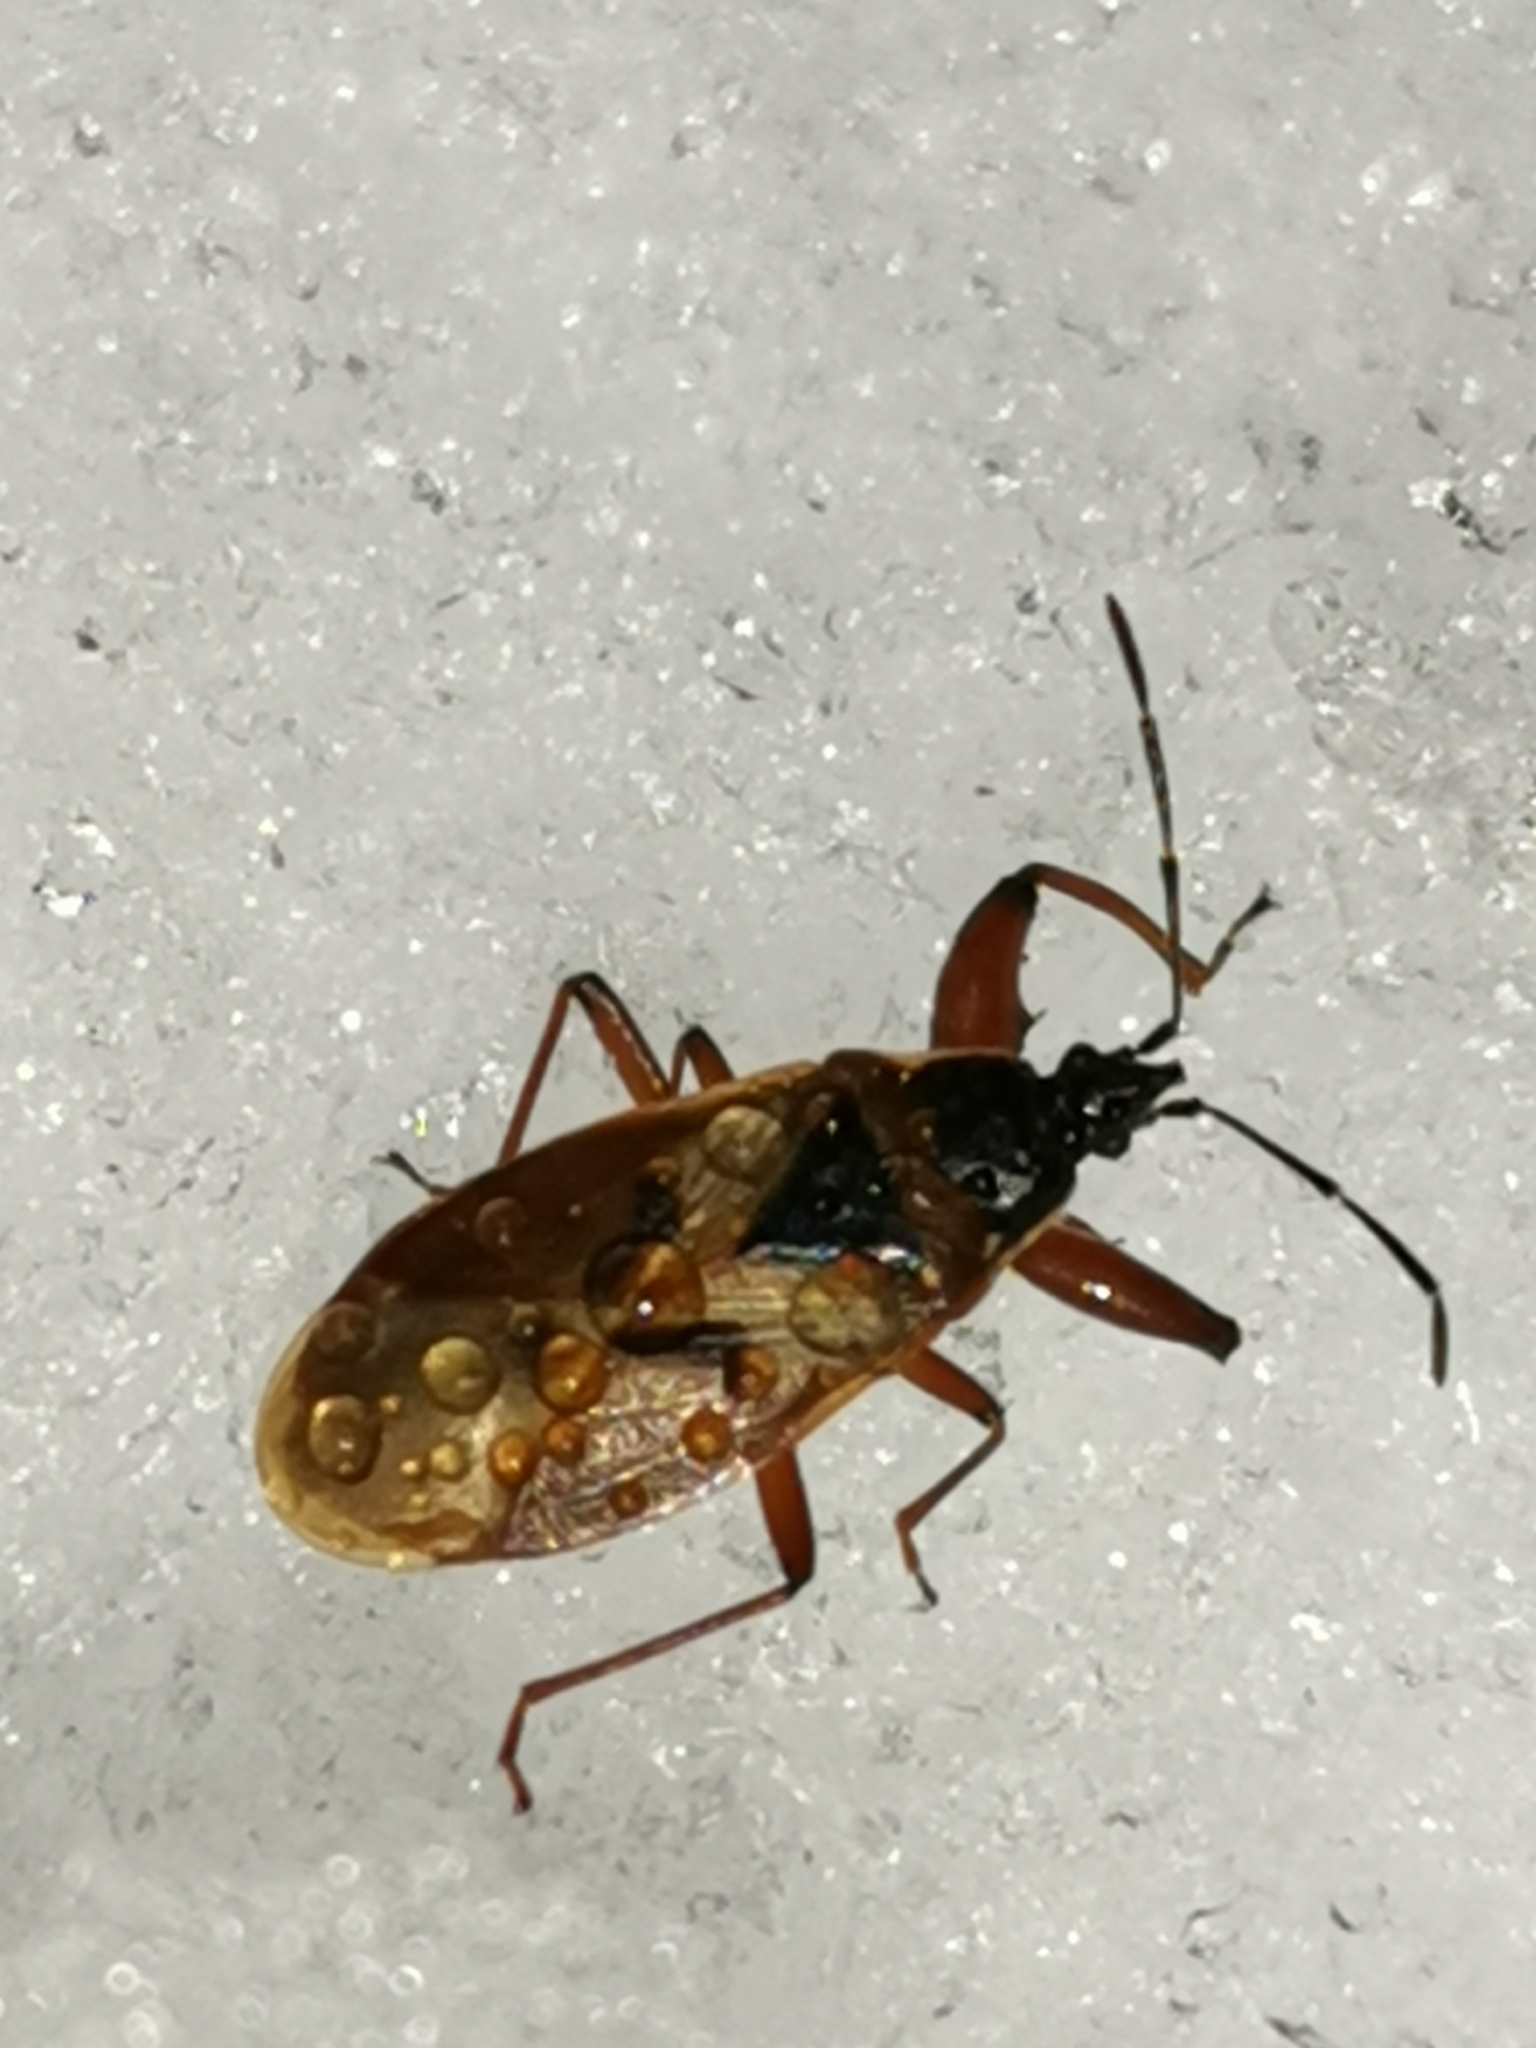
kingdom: Animalia
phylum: Arthropoda
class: Insecta
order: Hemiptera
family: Rhyparochromidae
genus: Gastrodes
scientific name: Gastrodes abietum
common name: Spruce cone bug
